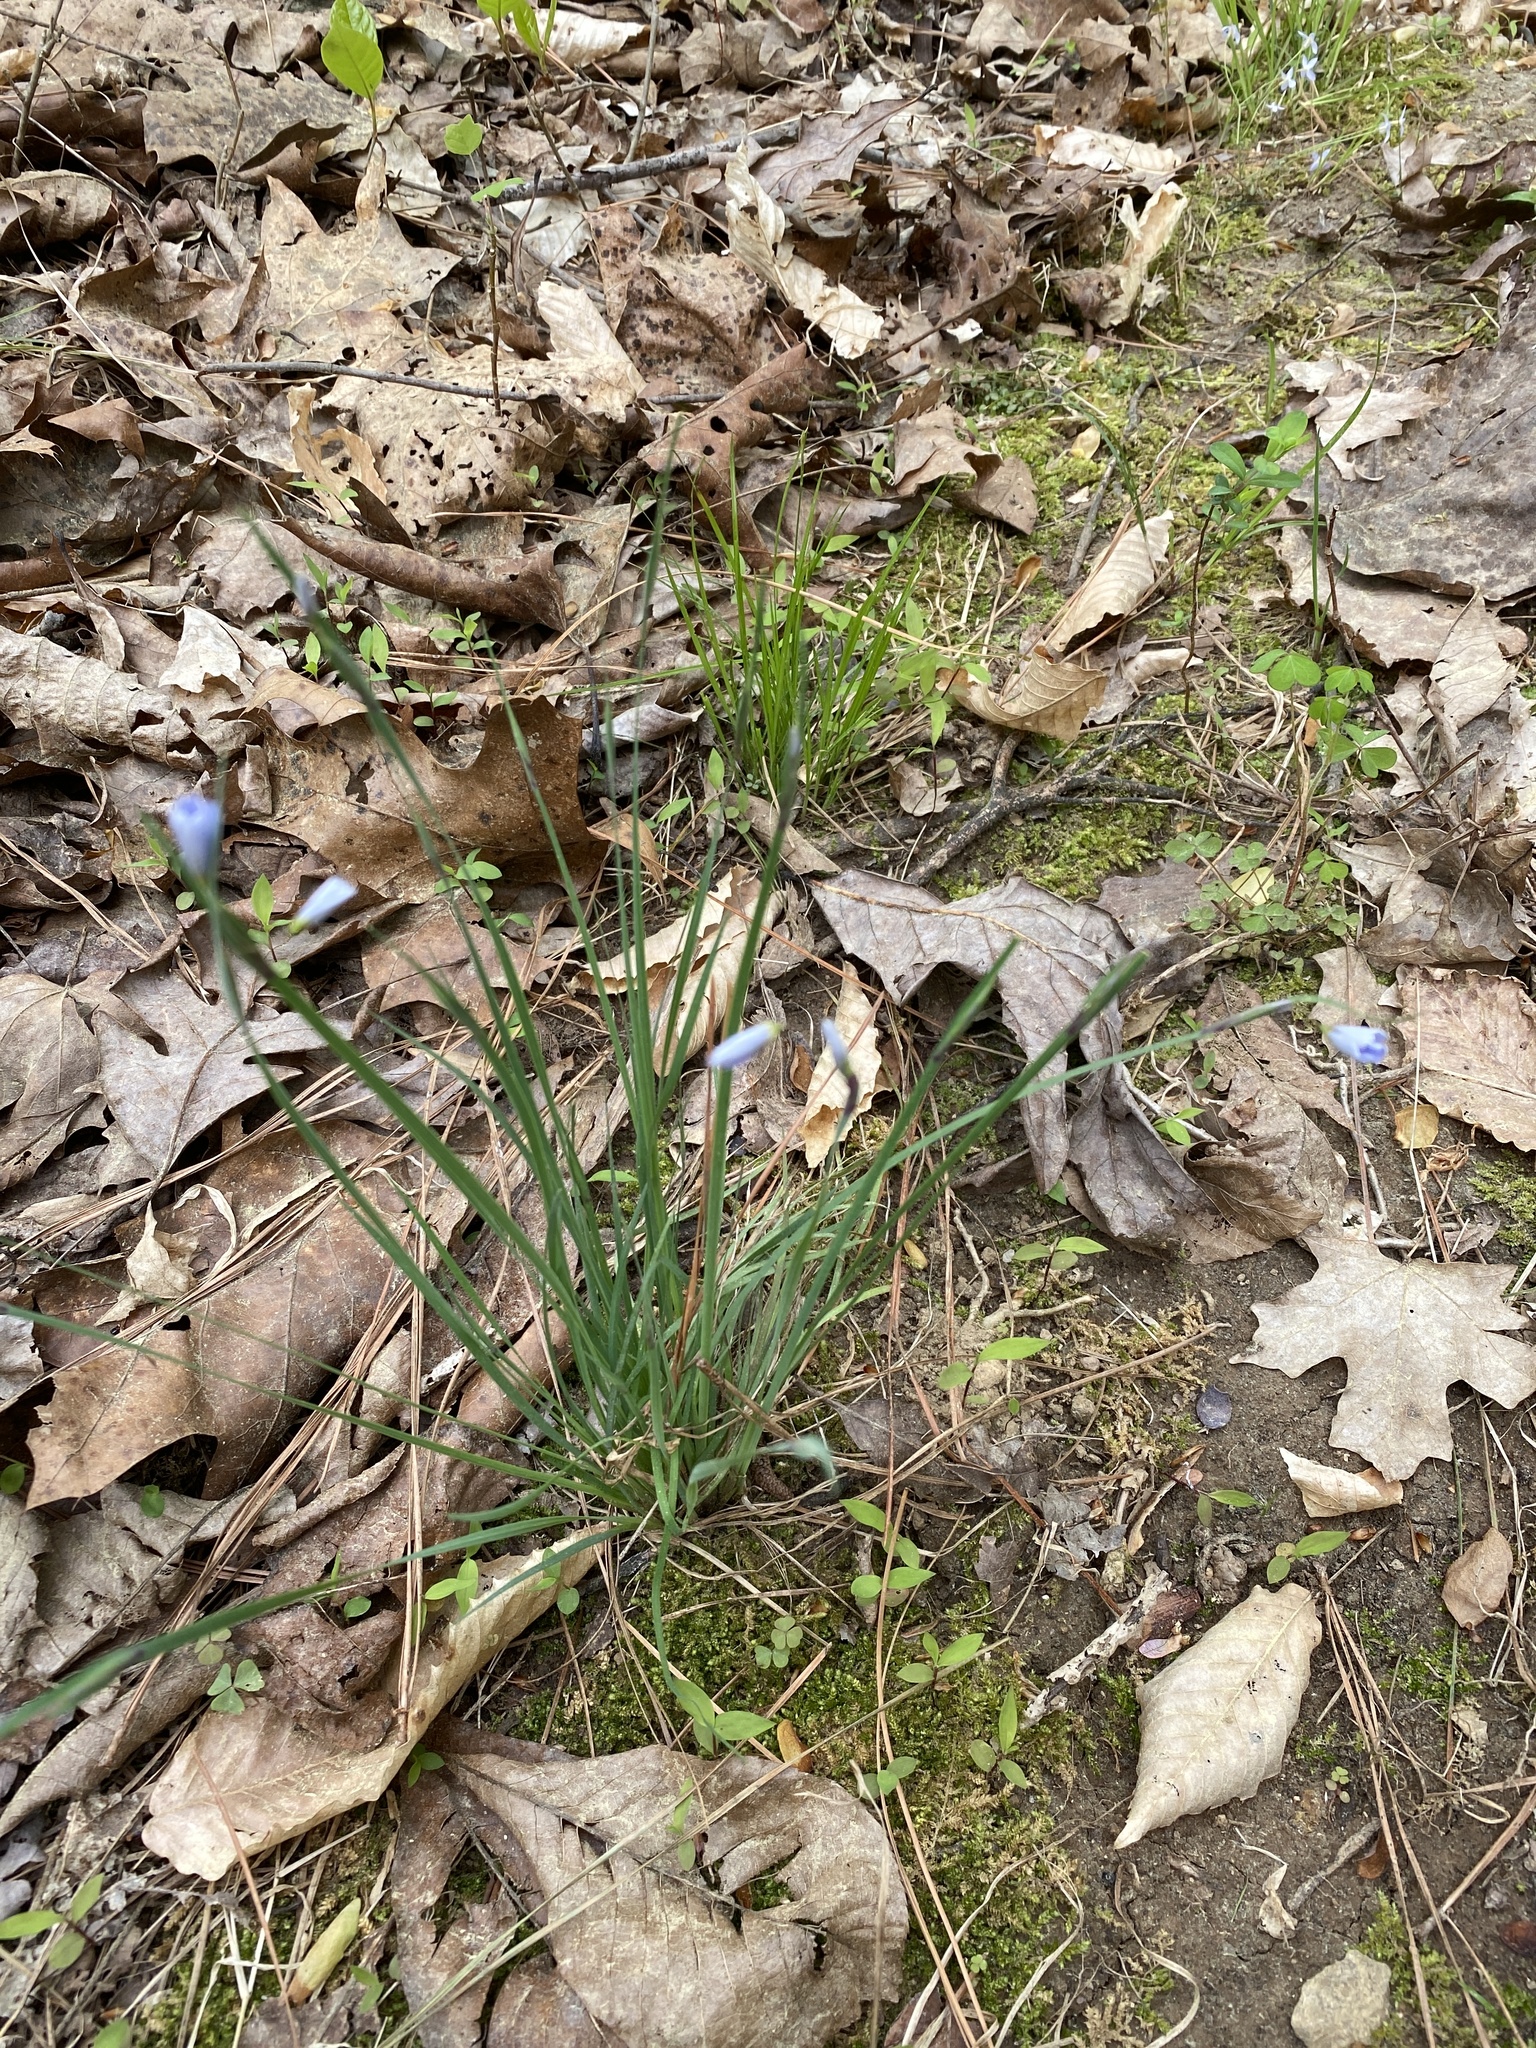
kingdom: Plantae
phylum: Tracheophyta
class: Liliopsida
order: Asparagales
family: Iridaceae
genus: Sisyrinchium
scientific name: Sisyrinchium mucronatum
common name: Eastern blue-eyed-grass
